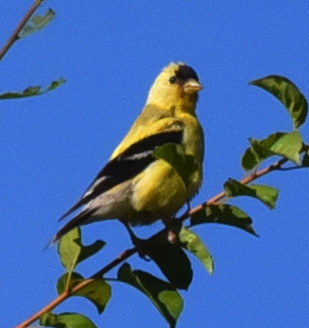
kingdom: Animalia
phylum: Chordata
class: Aves
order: Passeriformes
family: Fringillidae
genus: Spinus
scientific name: Spinus tristis
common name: American goldfinch
